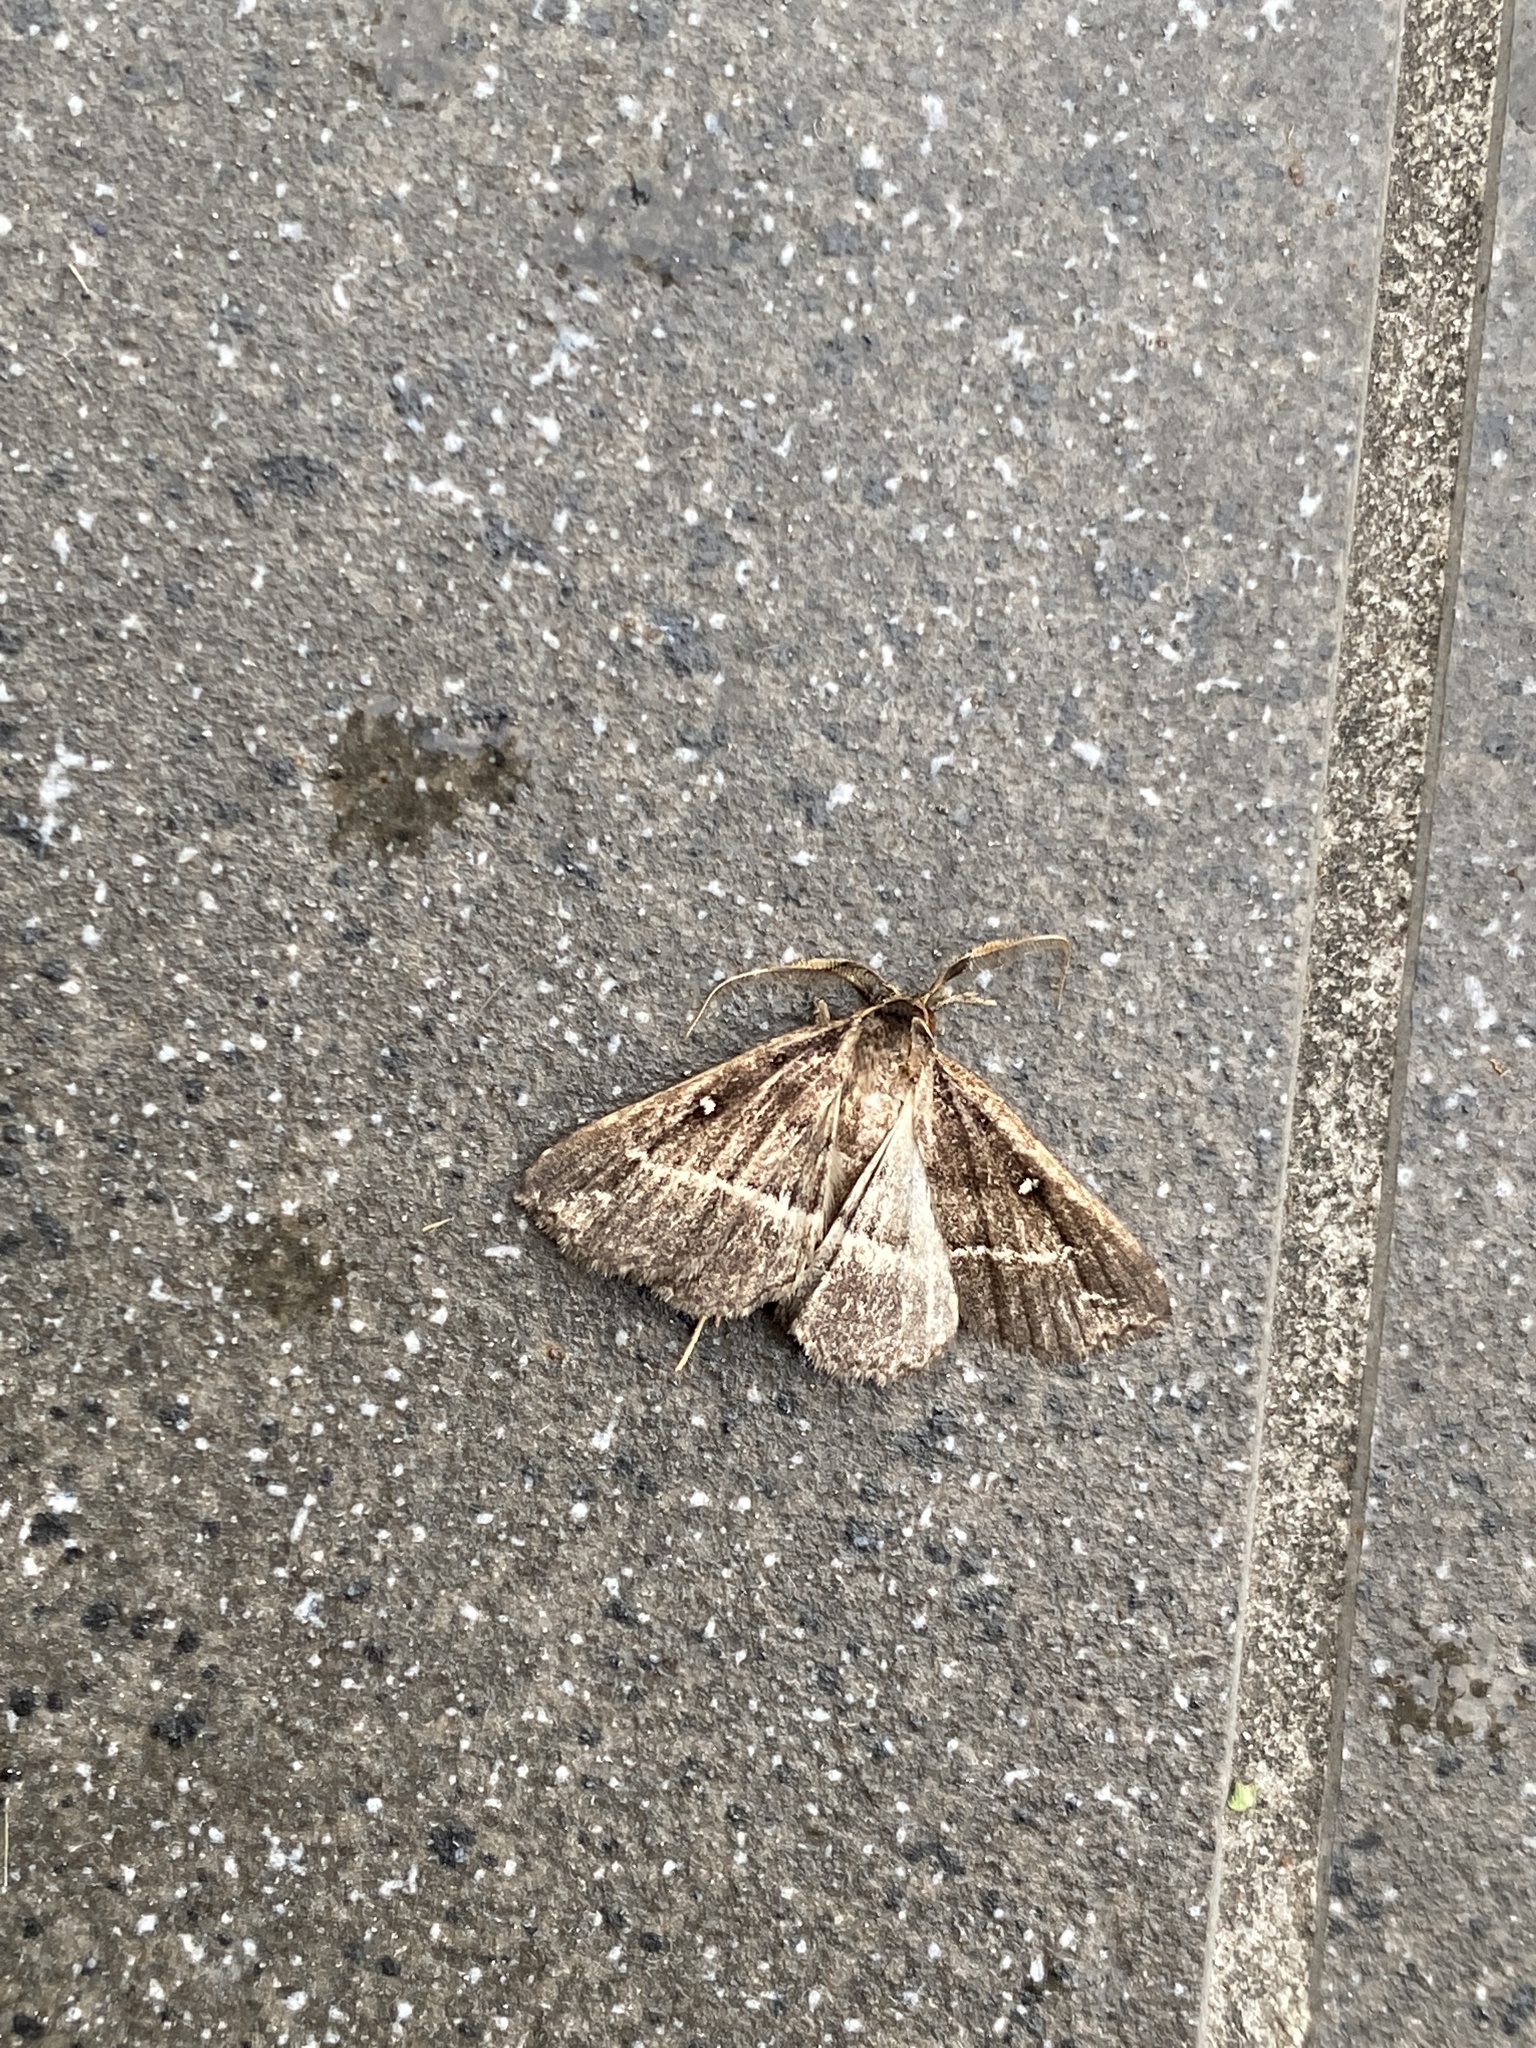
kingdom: Animalia
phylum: Arthropoda
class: Insecta
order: Lepidoptera
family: Erebidae
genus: Adrapsa
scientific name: Adrapsa ablualis
